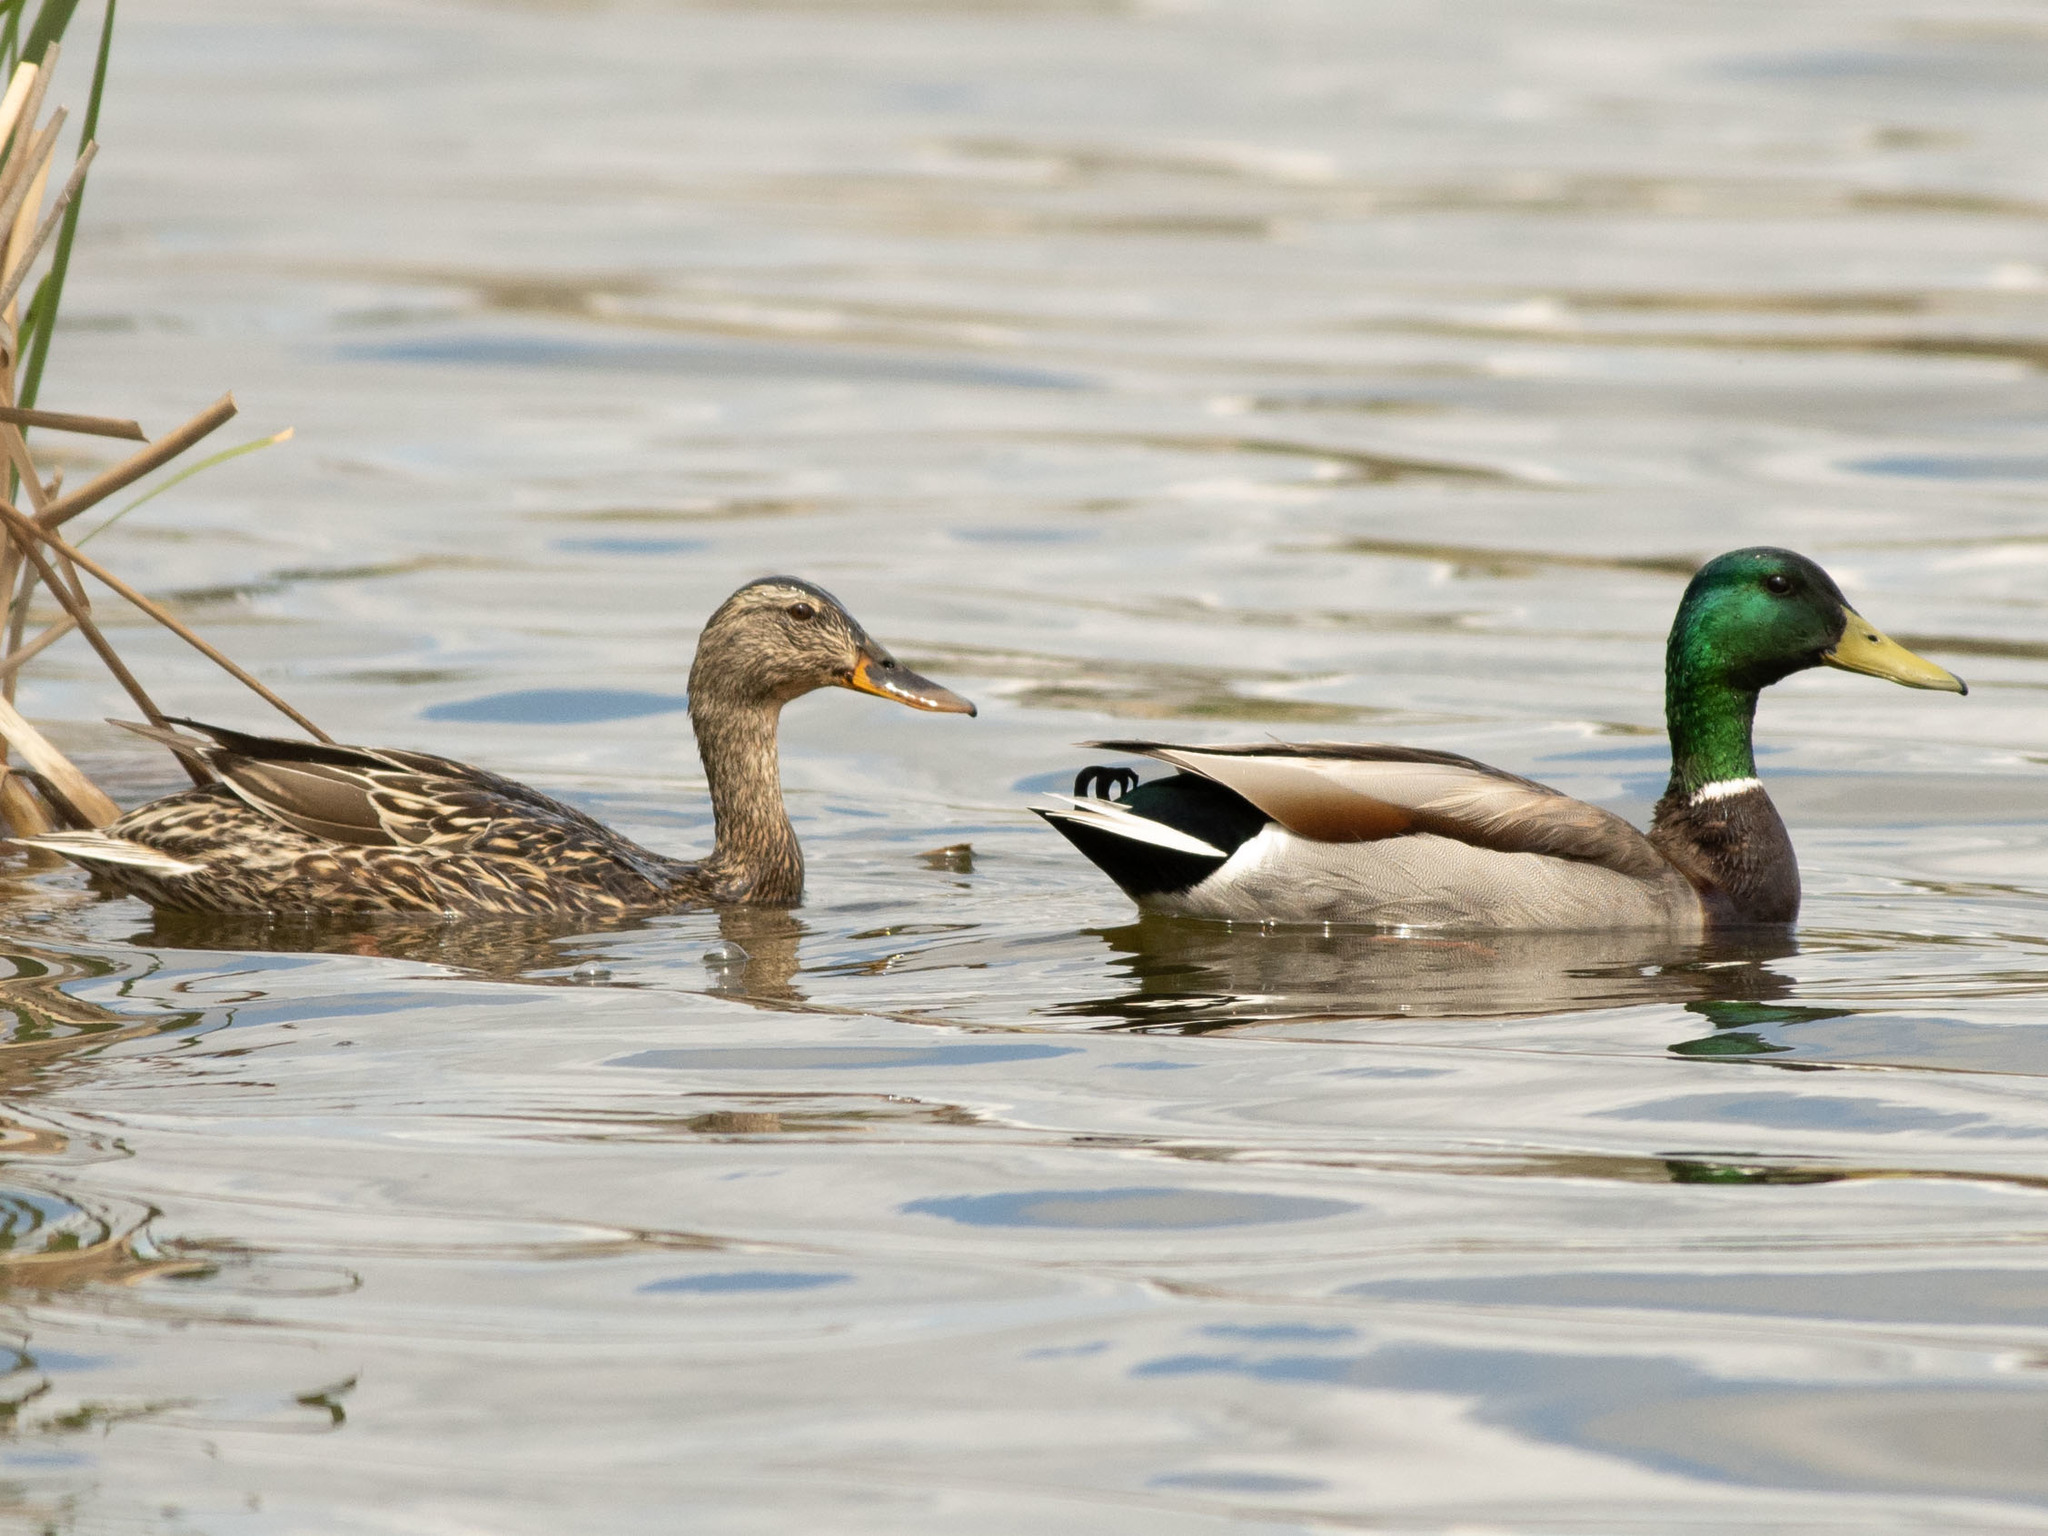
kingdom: Animalia
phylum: Chordata
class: Aves
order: Anseriformes
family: Anatidae
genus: Anas
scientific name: Anas platyrhynchos
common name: Mallard
